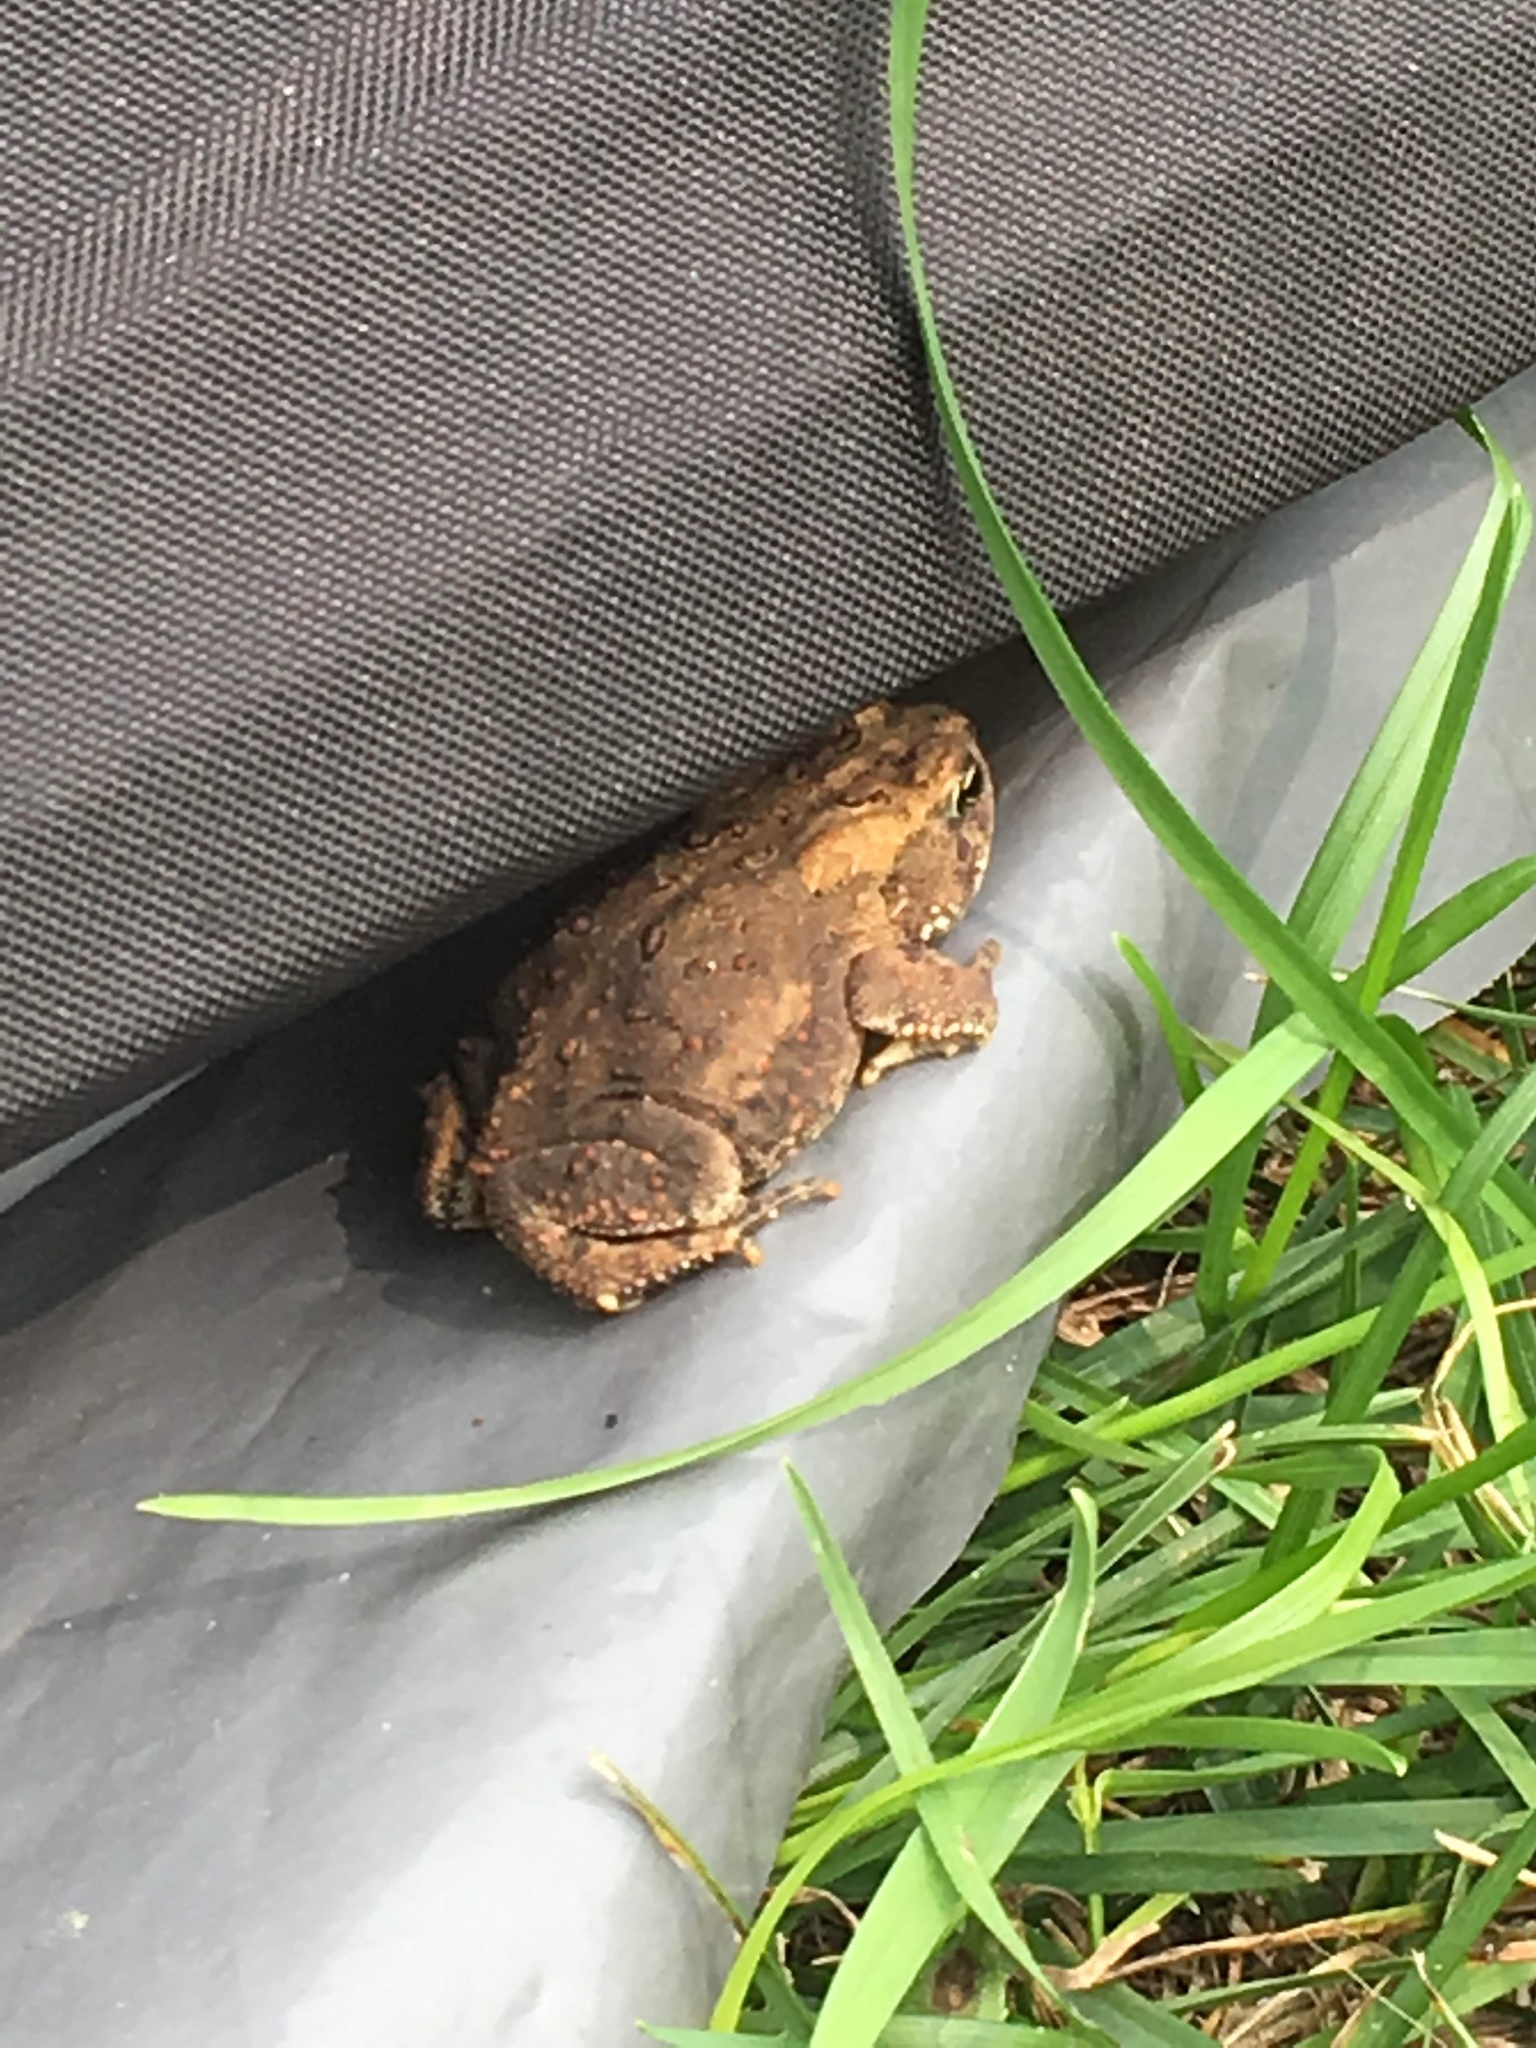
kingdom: Animalia
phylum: Chordata
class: Amphibia
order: Anura
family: Bufonidae
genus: Anaxyrus
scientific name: Anaxyrus americanus
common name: American toad
